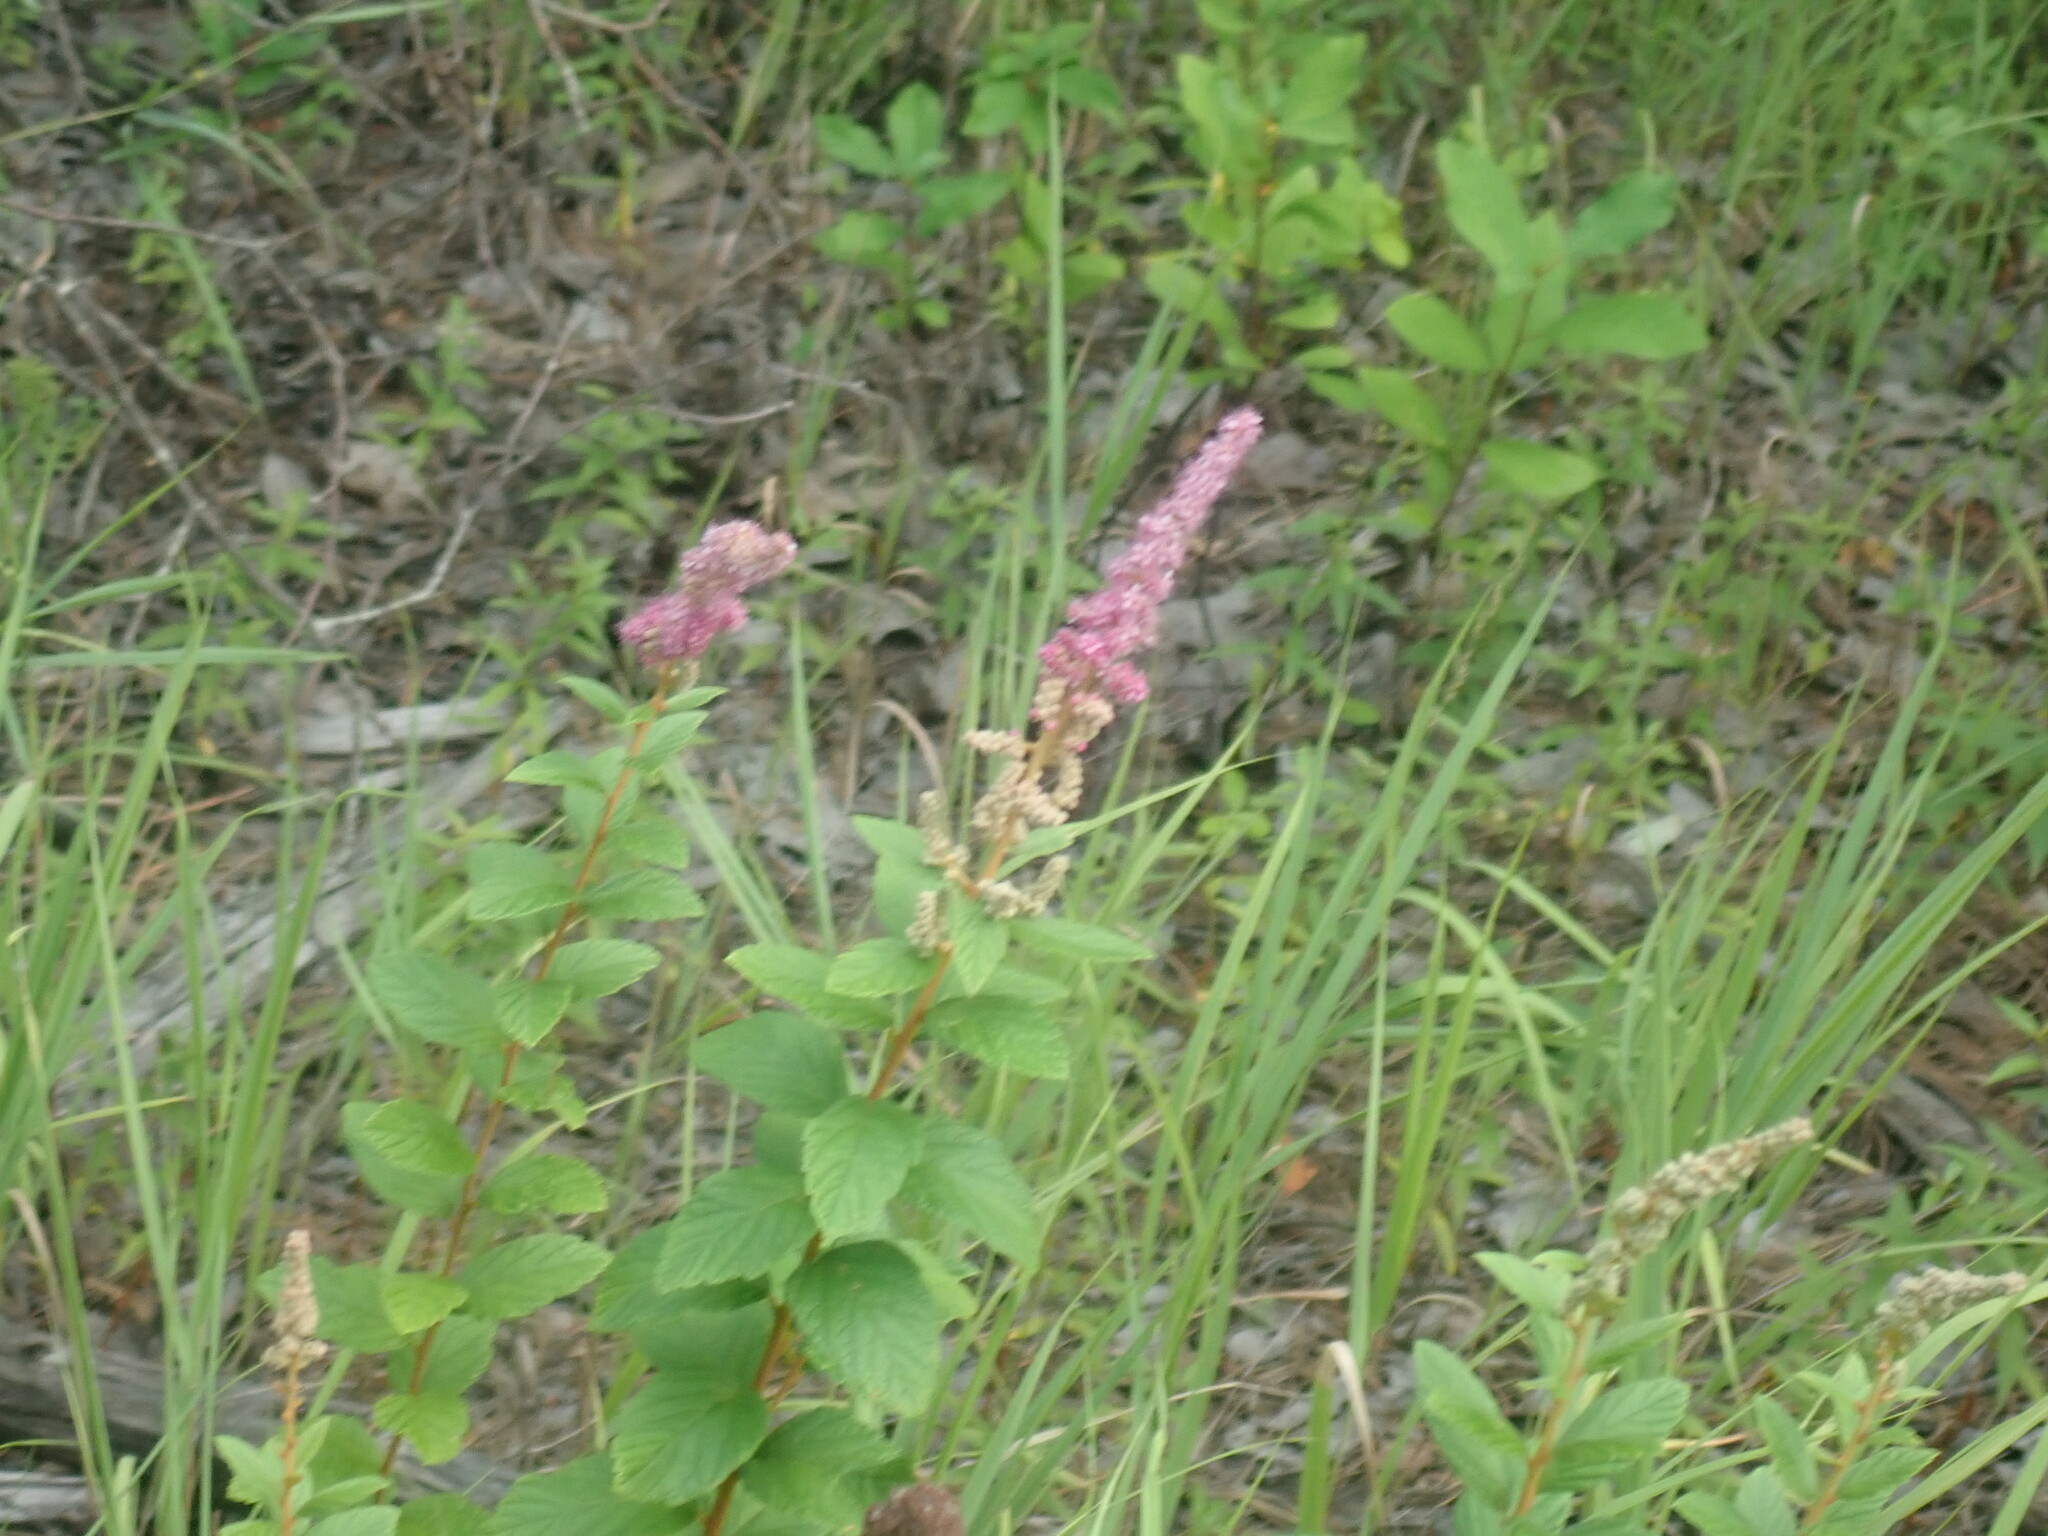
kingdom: Plantae
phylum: Tracheophyta
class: Magnoliopsida
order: Rosales
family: Rosaceae
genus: Spiraea
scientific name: Spiraea tomentosa
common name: Hardhack
